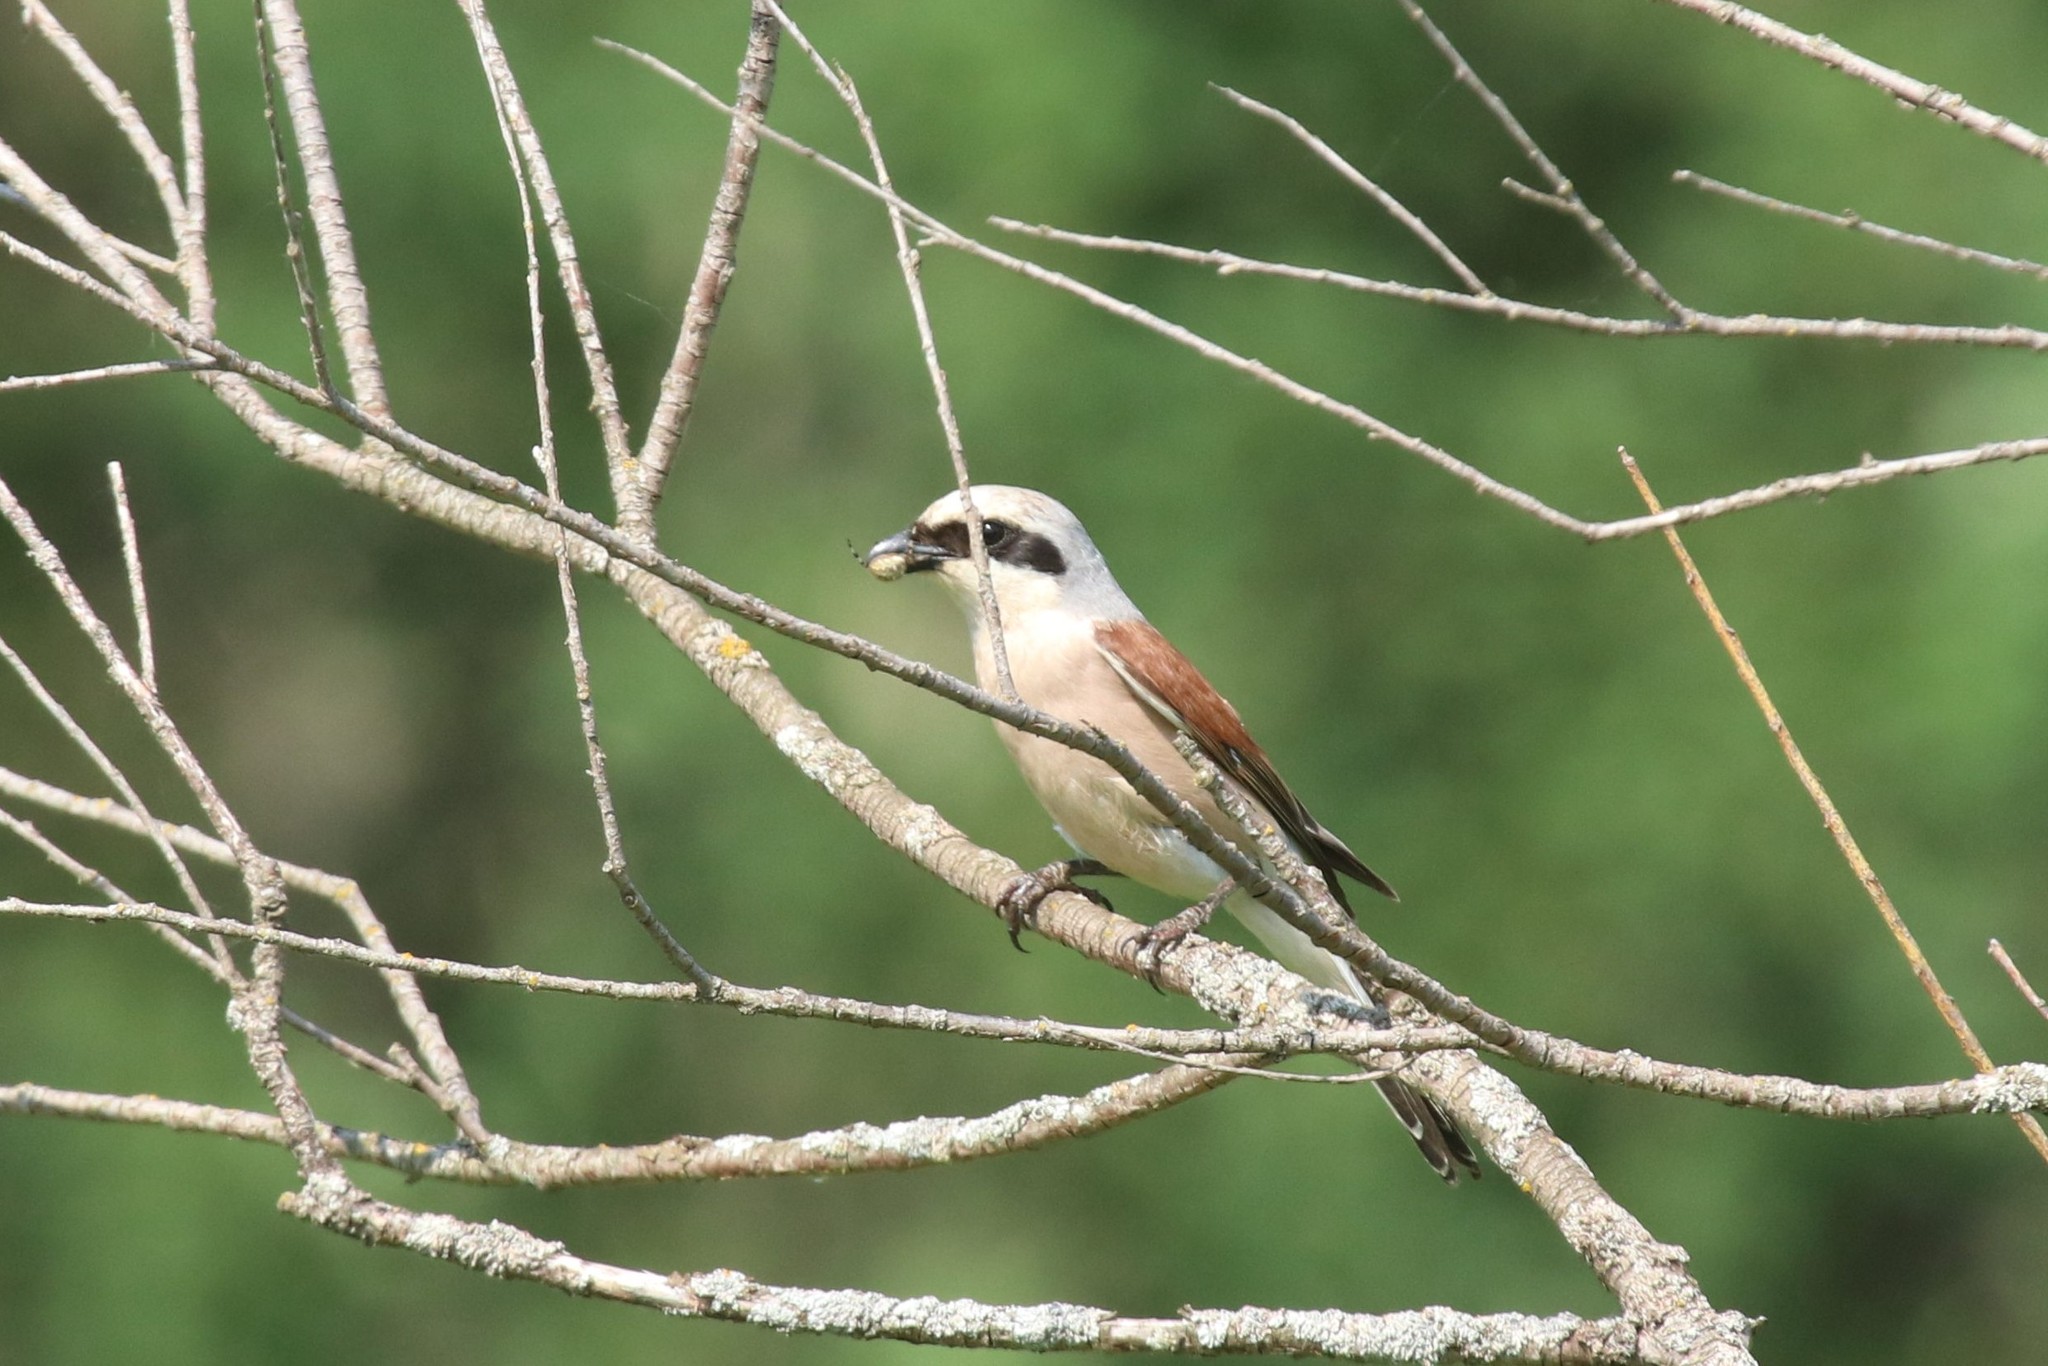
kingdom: Animalia
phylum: Chordata
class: Aves
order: Passeriformes
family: Laniidae
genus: Lanius
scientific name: Lanius collurio
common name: Red-backed shrike
